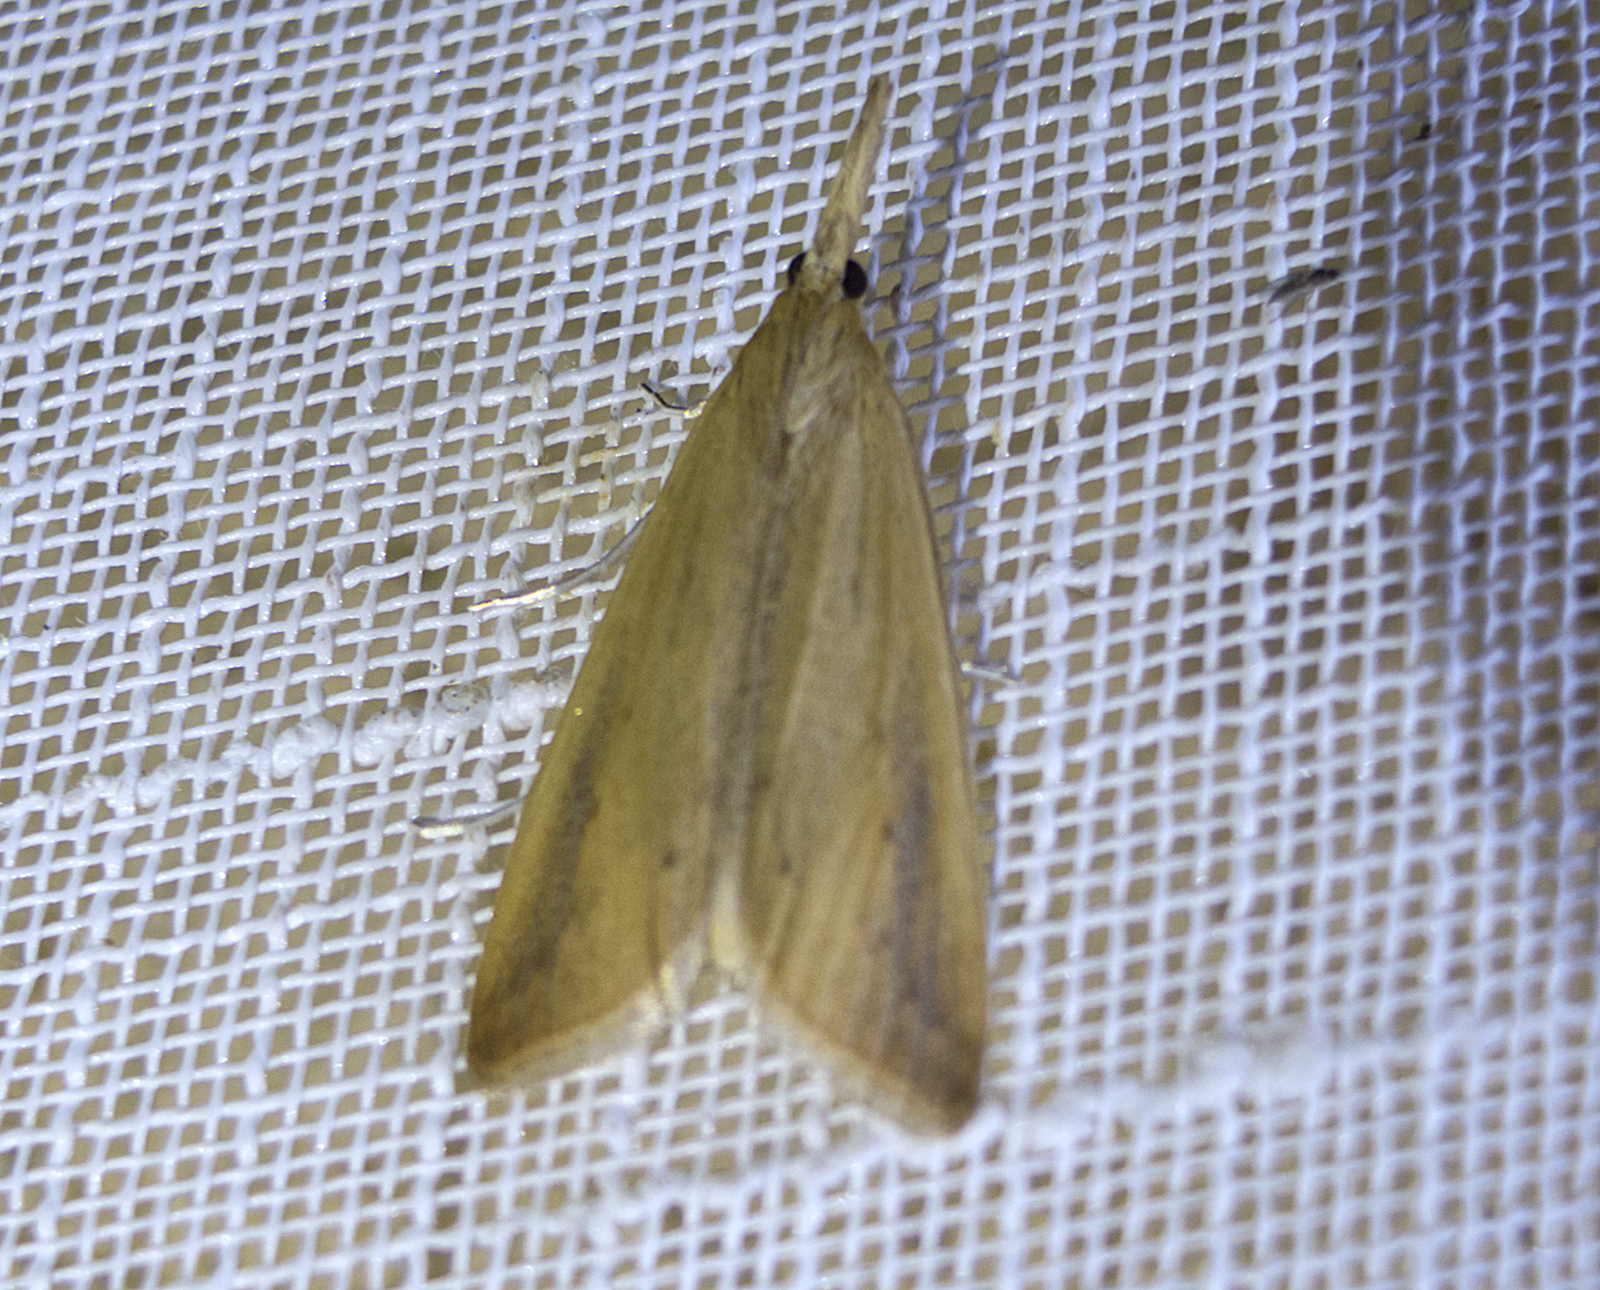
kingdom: Animalia
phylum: Arthropoda
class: Insecta
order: Lepidoptera
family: Crambidae
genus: Schoenobius
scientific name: Schoenobius gigantella
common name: Giant water-veneer
